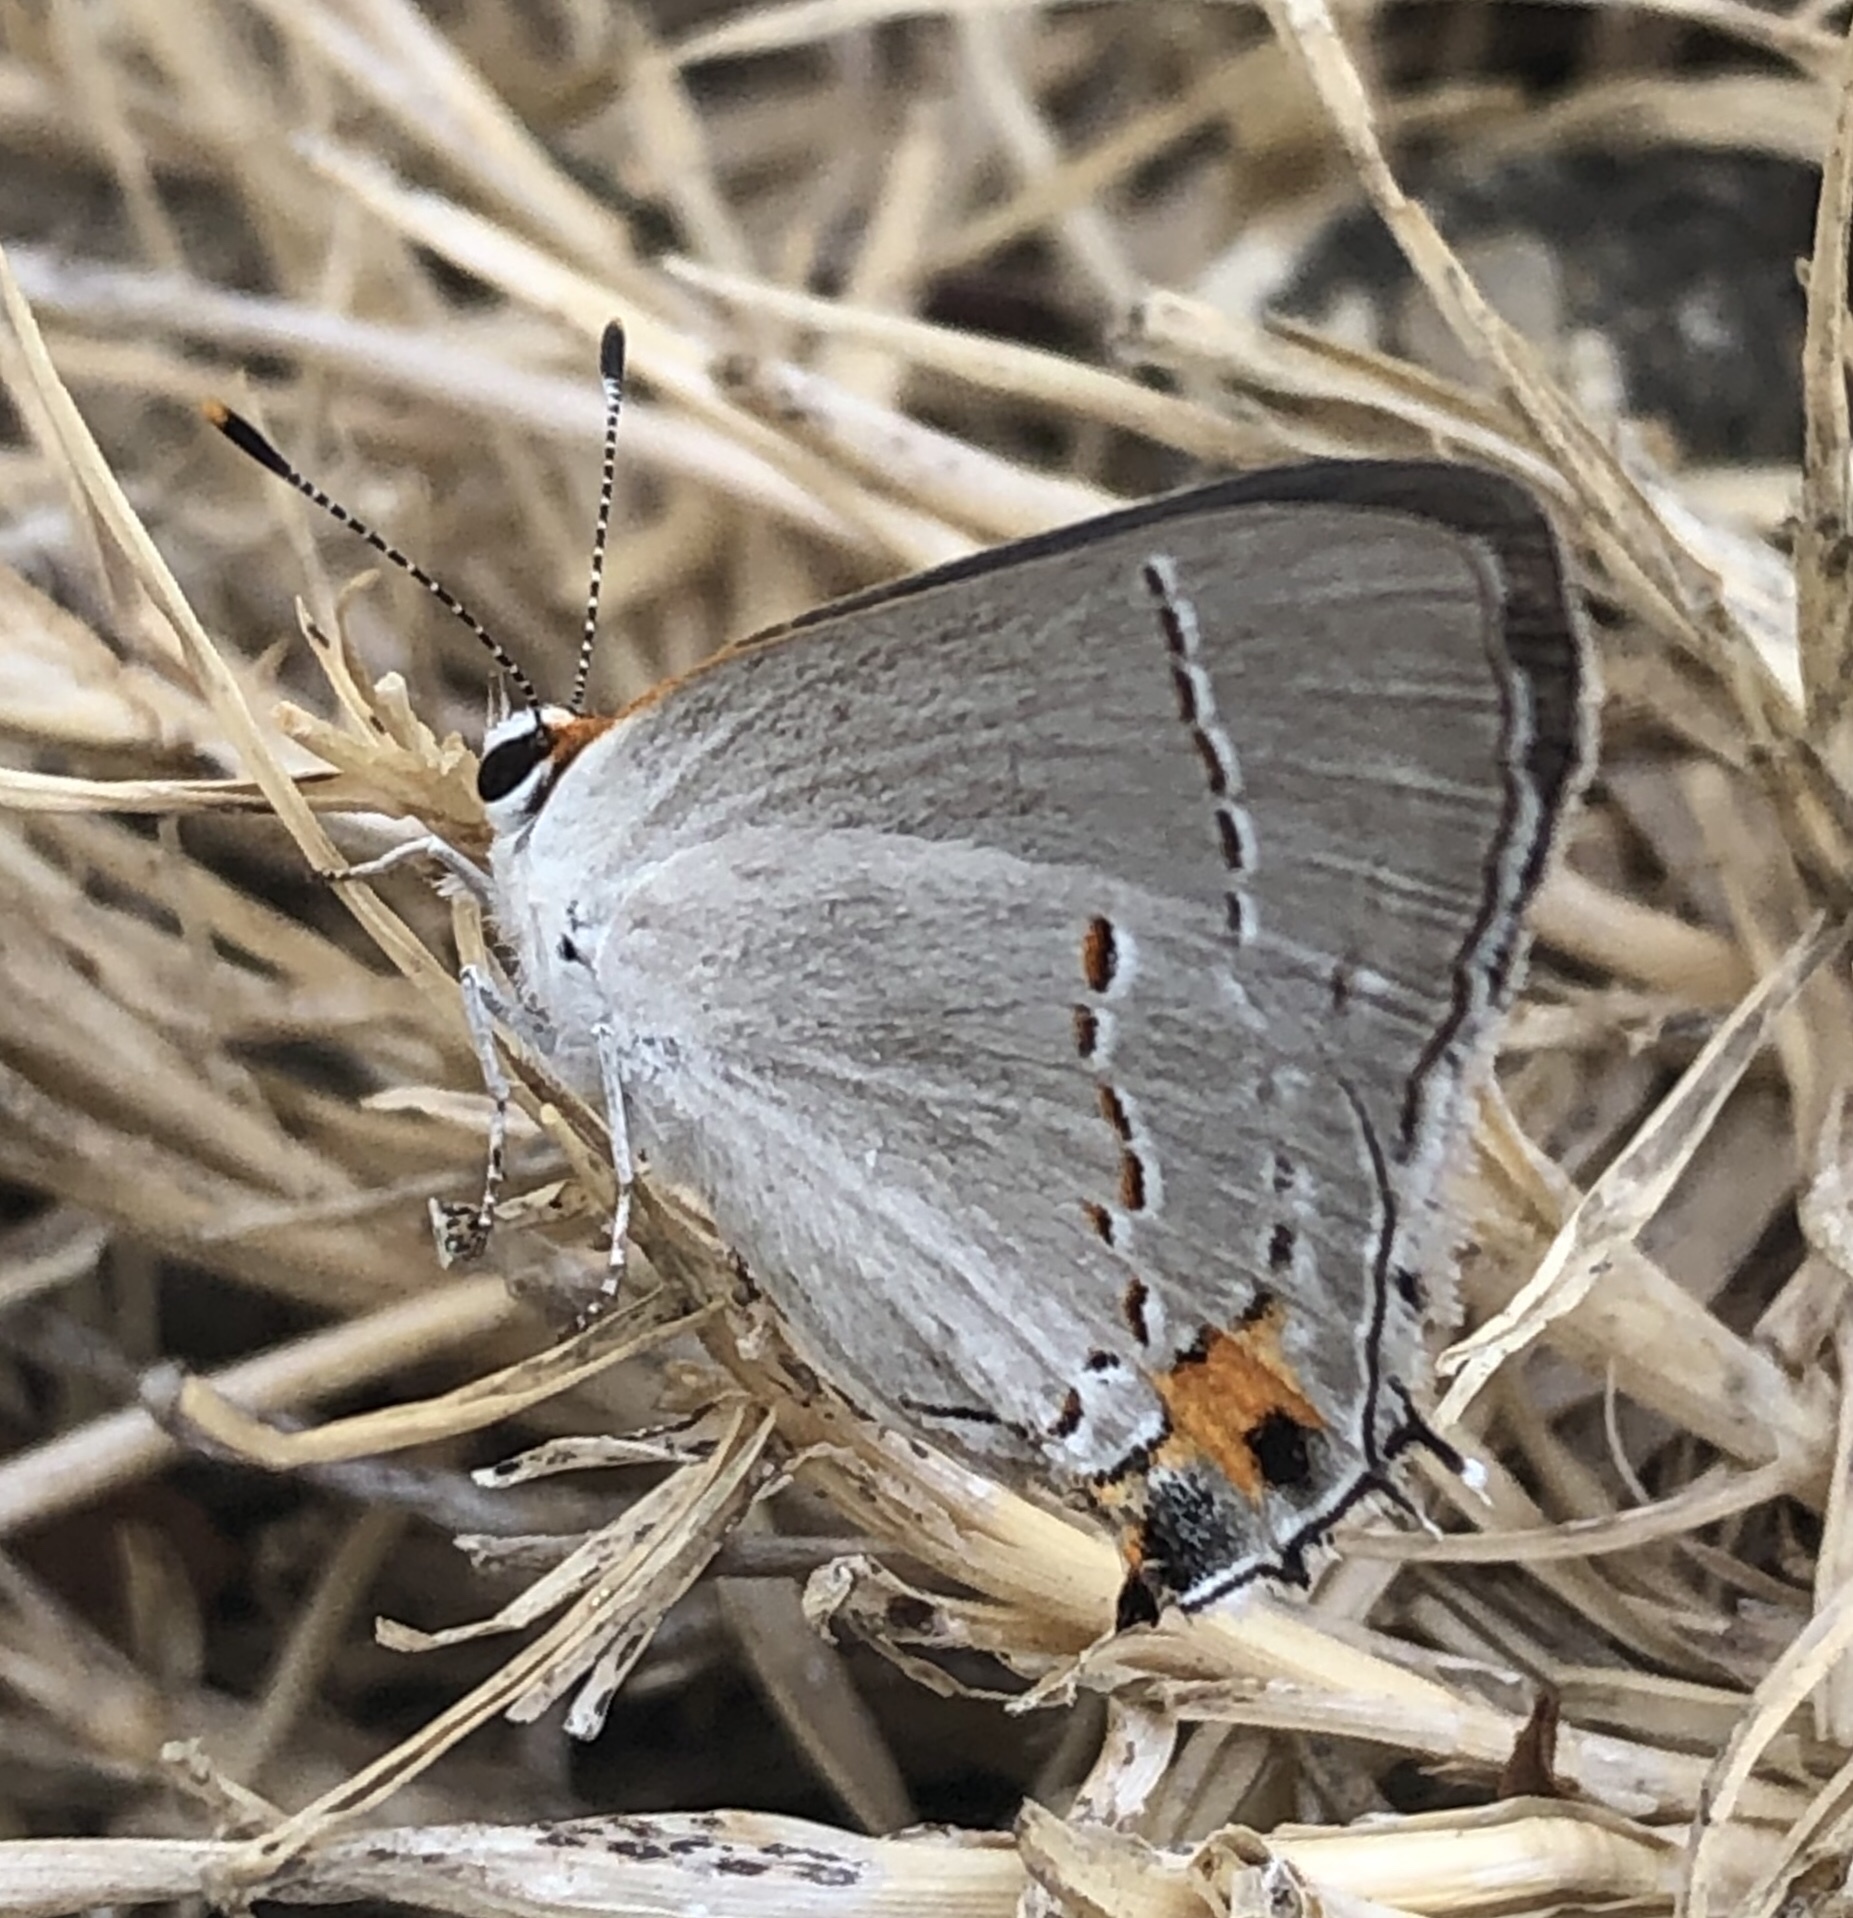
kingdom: Animalia
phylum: Arthropoda
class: Insecta
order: Lepidoptera
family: Lycaenidae
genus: Strymon
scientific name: Strymon melinus
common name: Gray hairstreak
